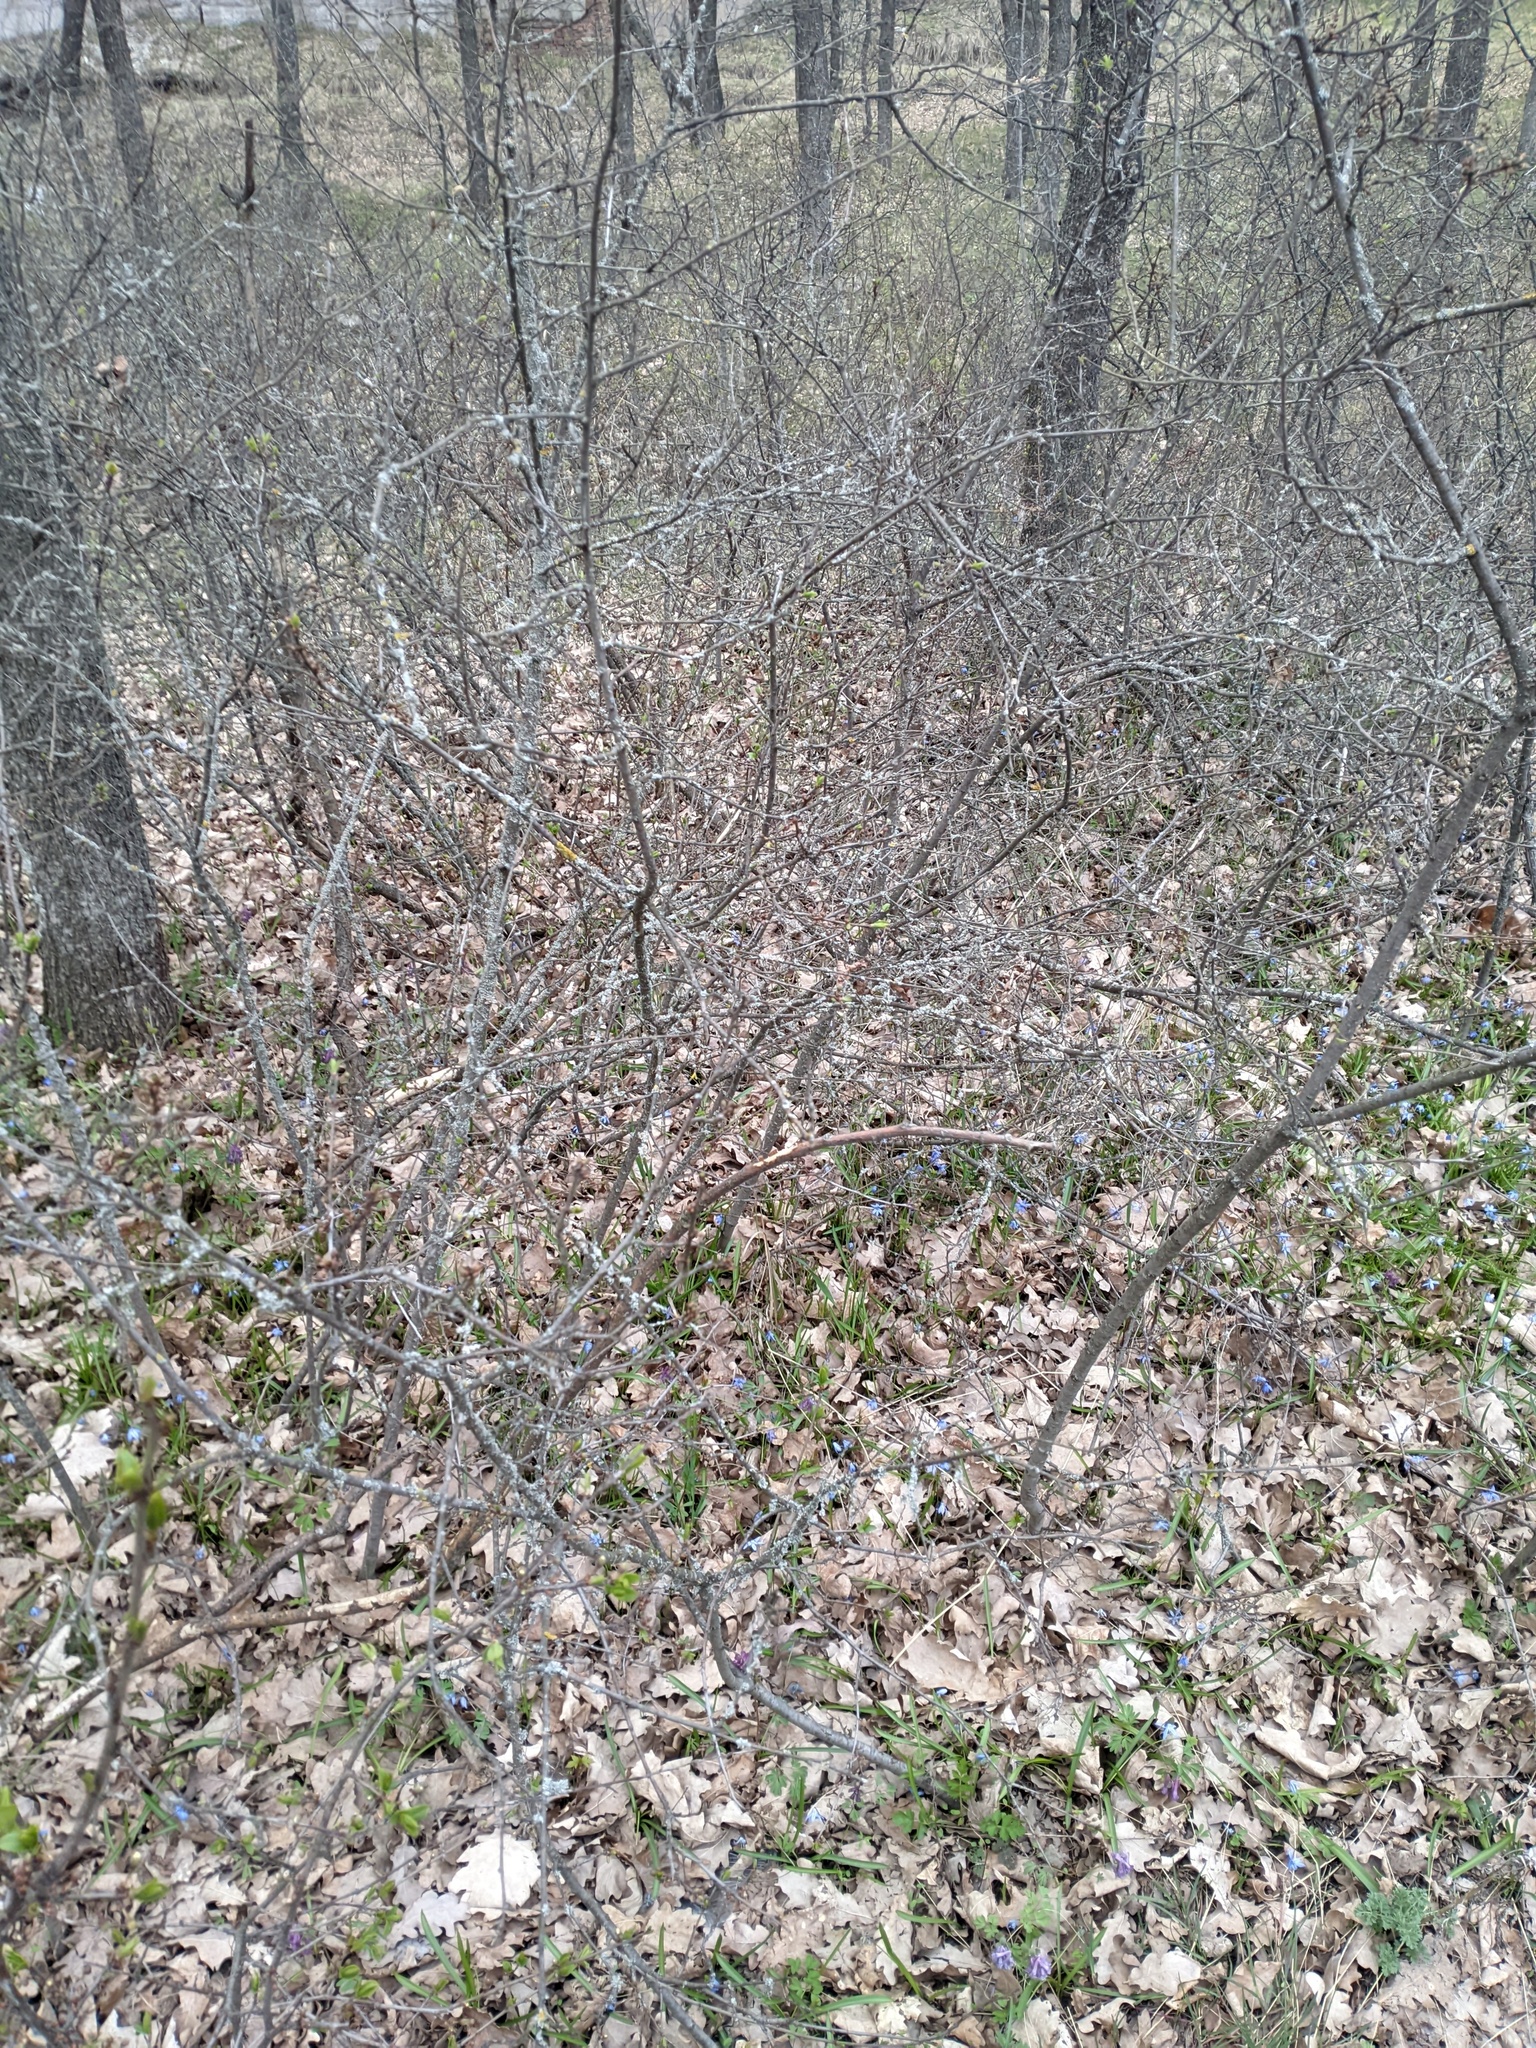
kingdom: Plantae
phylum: Tracheophyta
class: Magnoliopsida
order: Rosales
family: Rosaceae
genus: Prunus
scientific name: Prunus spinosa
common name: Blackthorn
